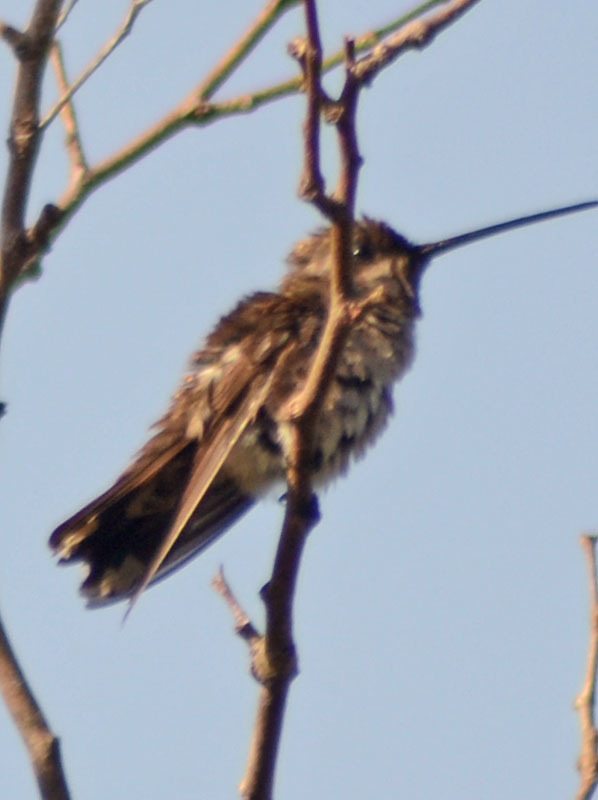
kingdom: Animalia
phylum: Chordata
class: Aves
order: Apodiformes
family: Trochilidae
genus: Heliomaster
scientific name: Heliomaster constantii
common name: Plain-capped starthroat
